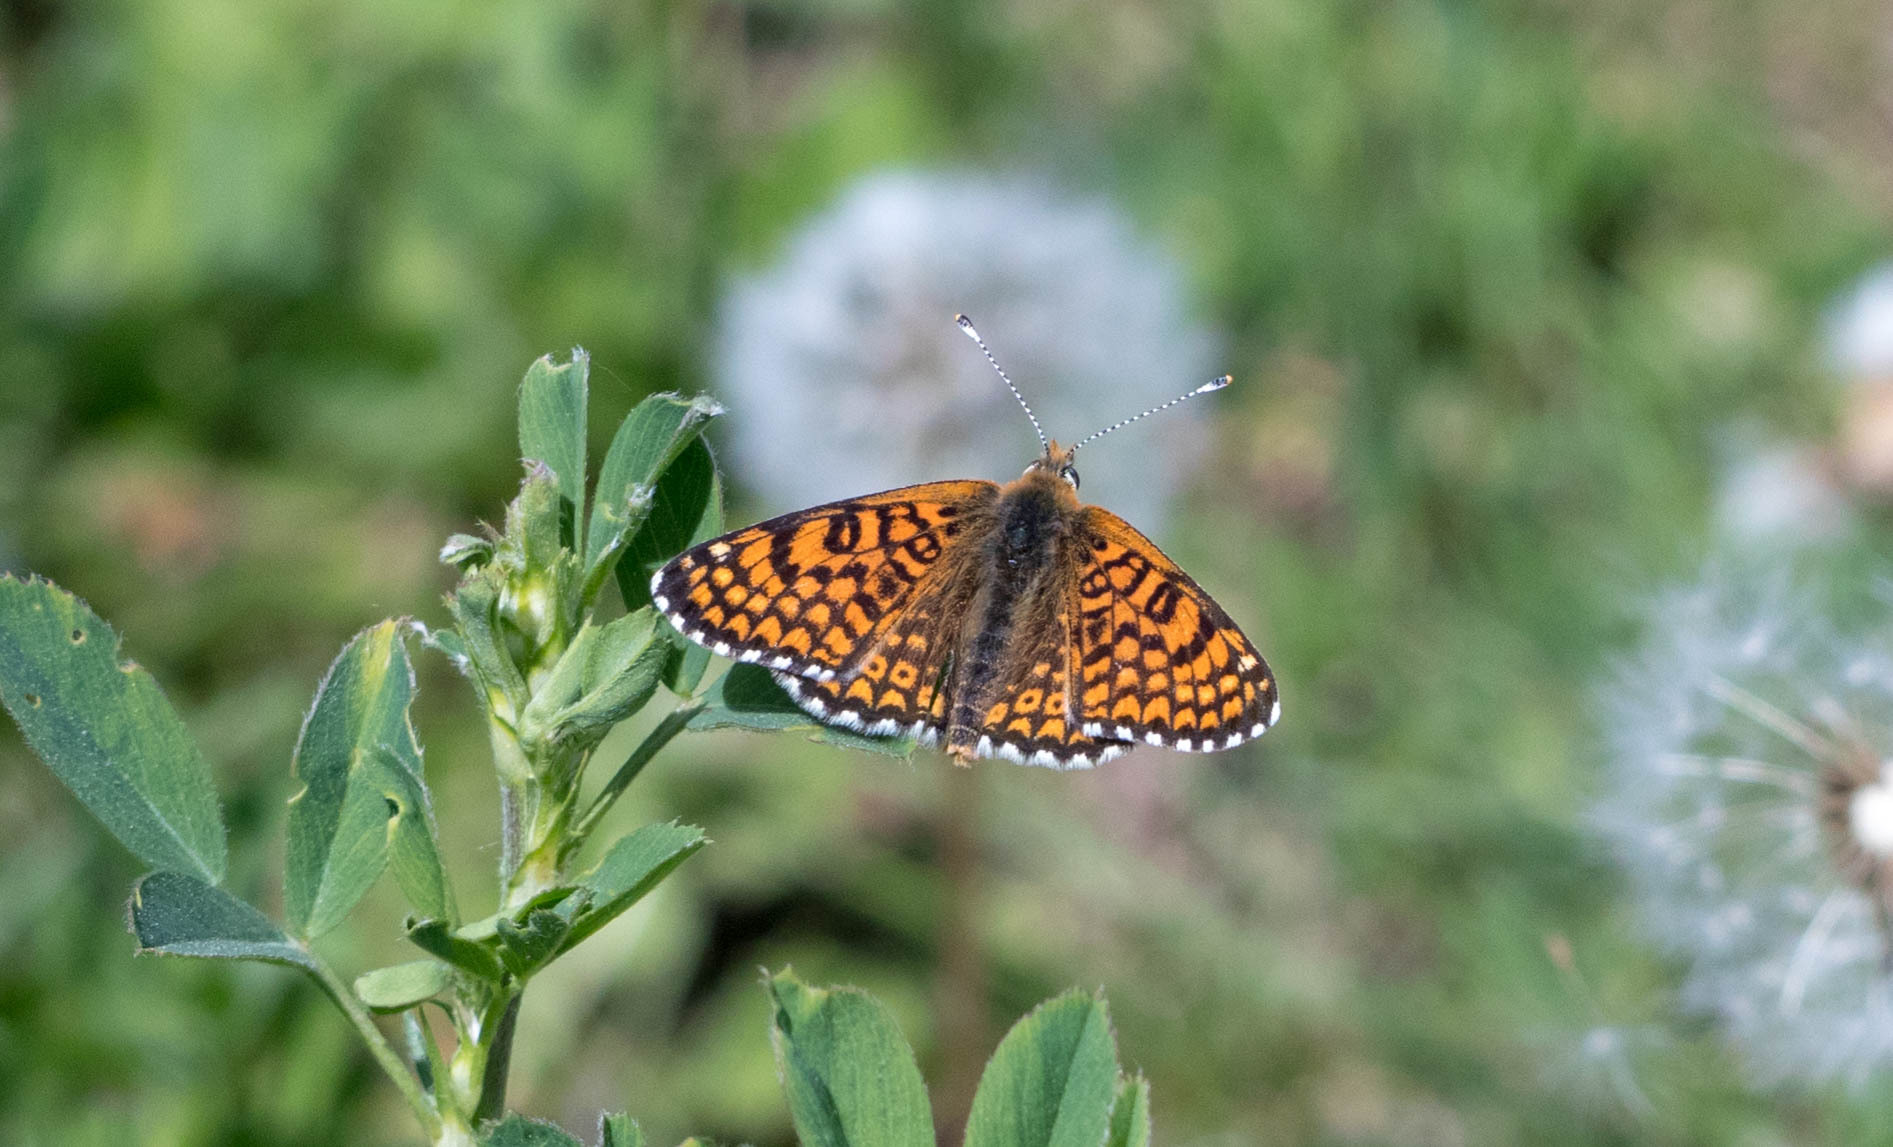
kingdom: Animalia
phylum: Arthropoda
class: Insecta
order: Lepidoptera
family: Nymphalidae
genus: Melitaea
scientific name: Melitaea cinxia
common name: Glanville fritillary
